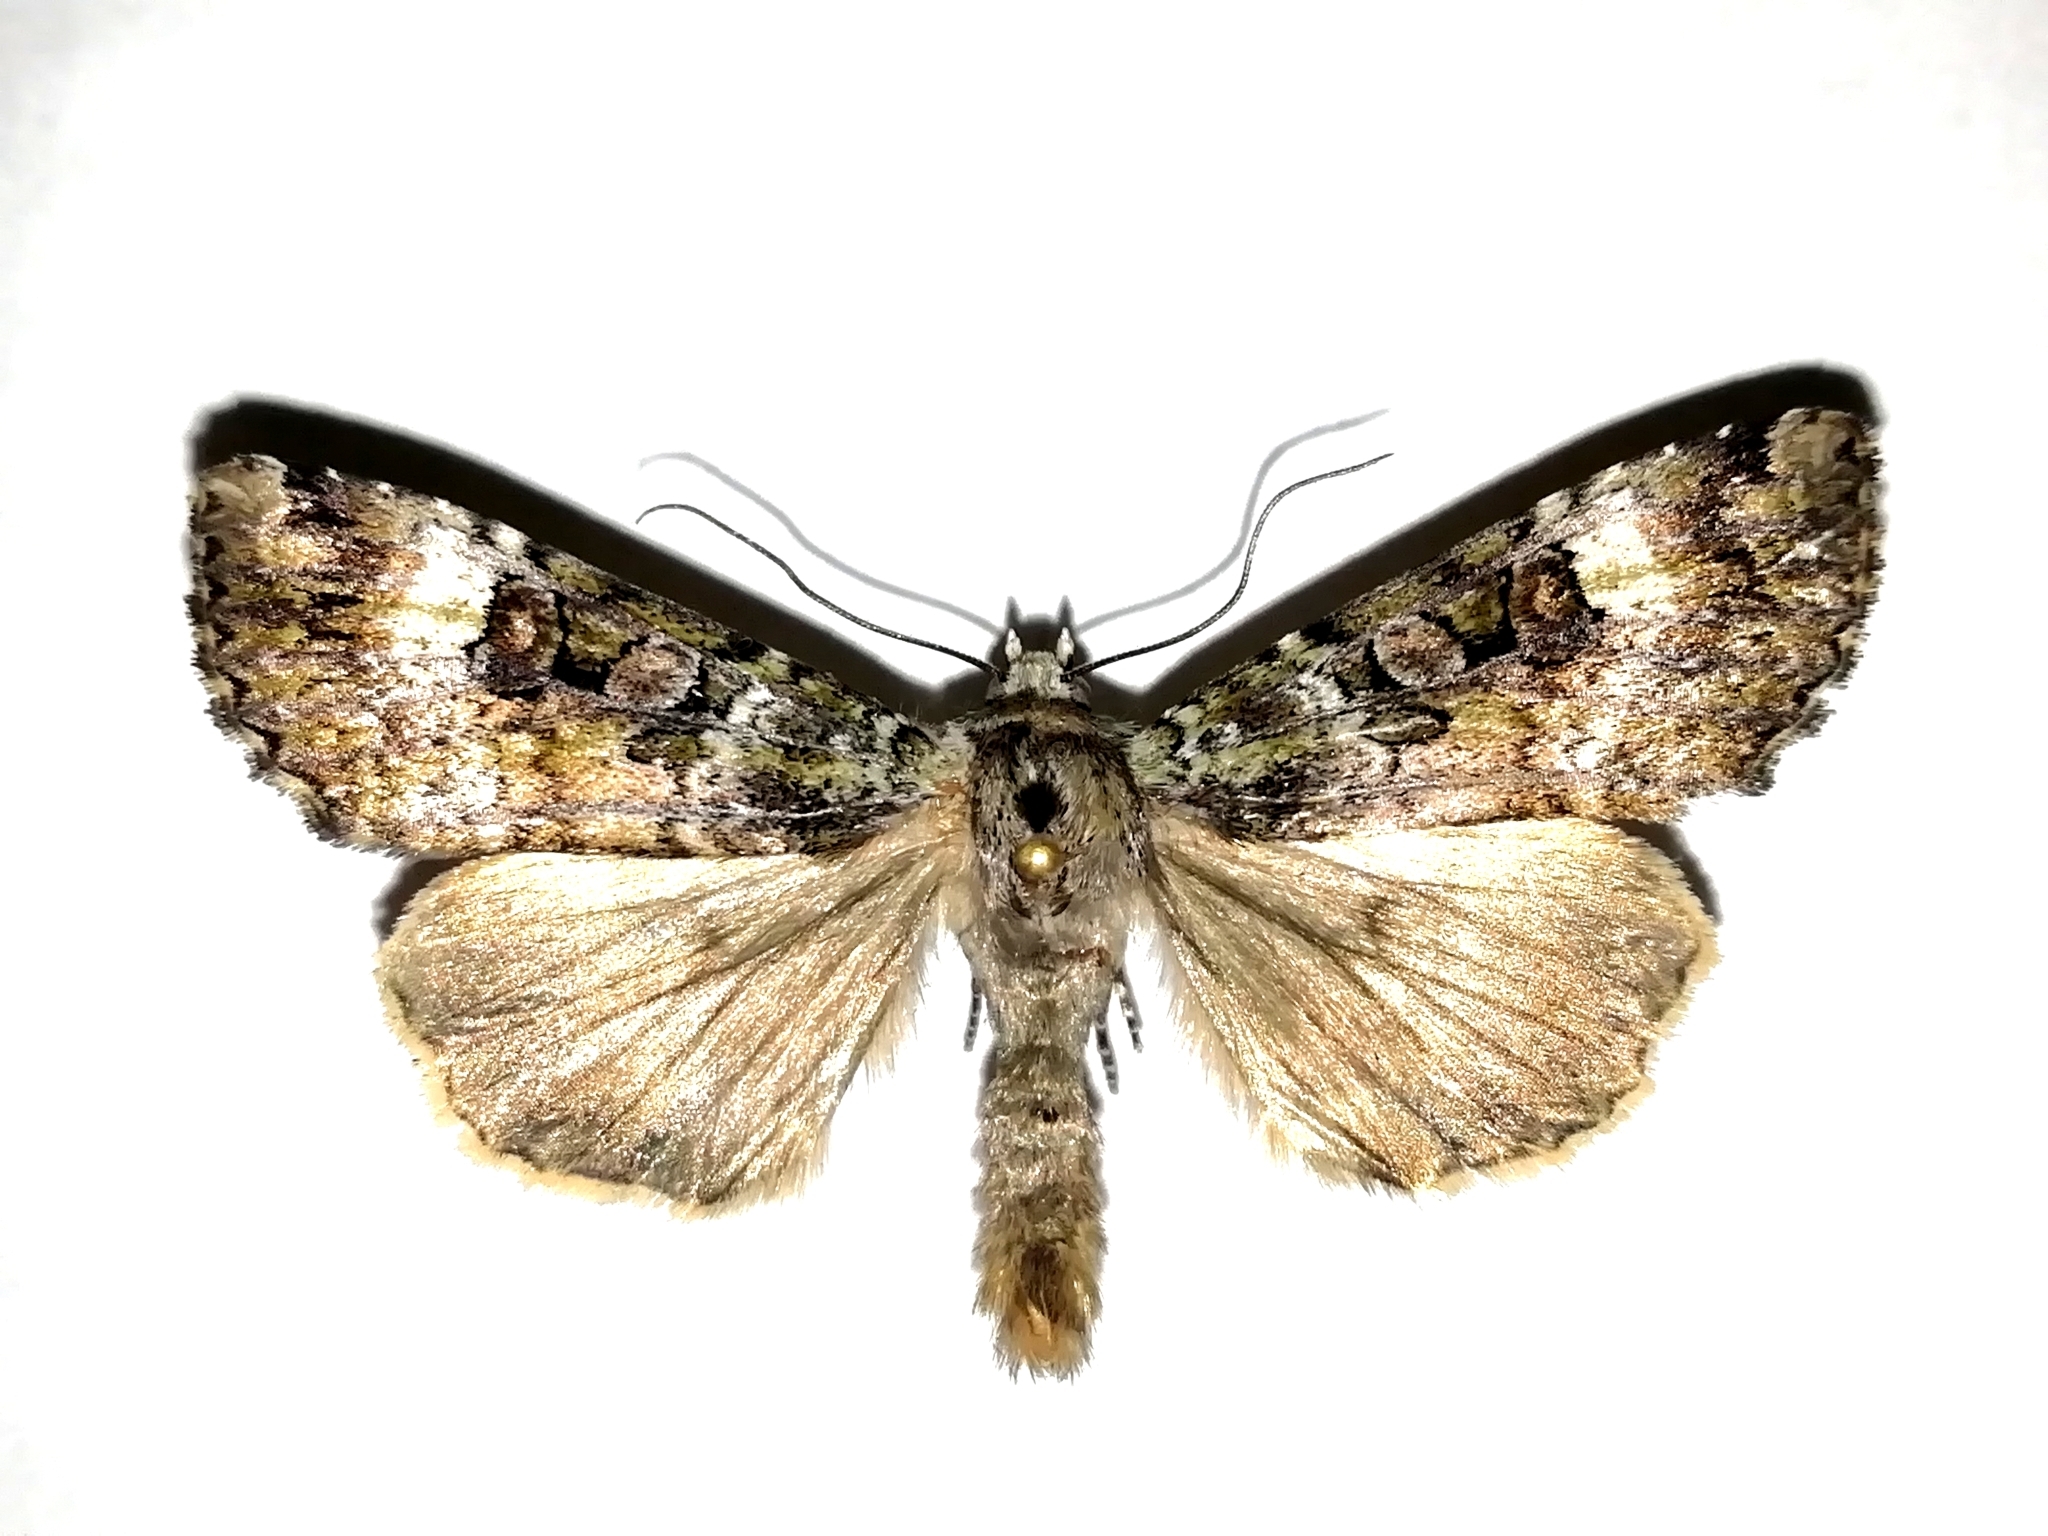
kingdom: Animalia
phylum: Arthropoda
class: Insecta
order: Lepidoptera
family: Noctuidae
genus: Anaplectoides
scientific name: Anaplectoides prasina
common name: Green arches
